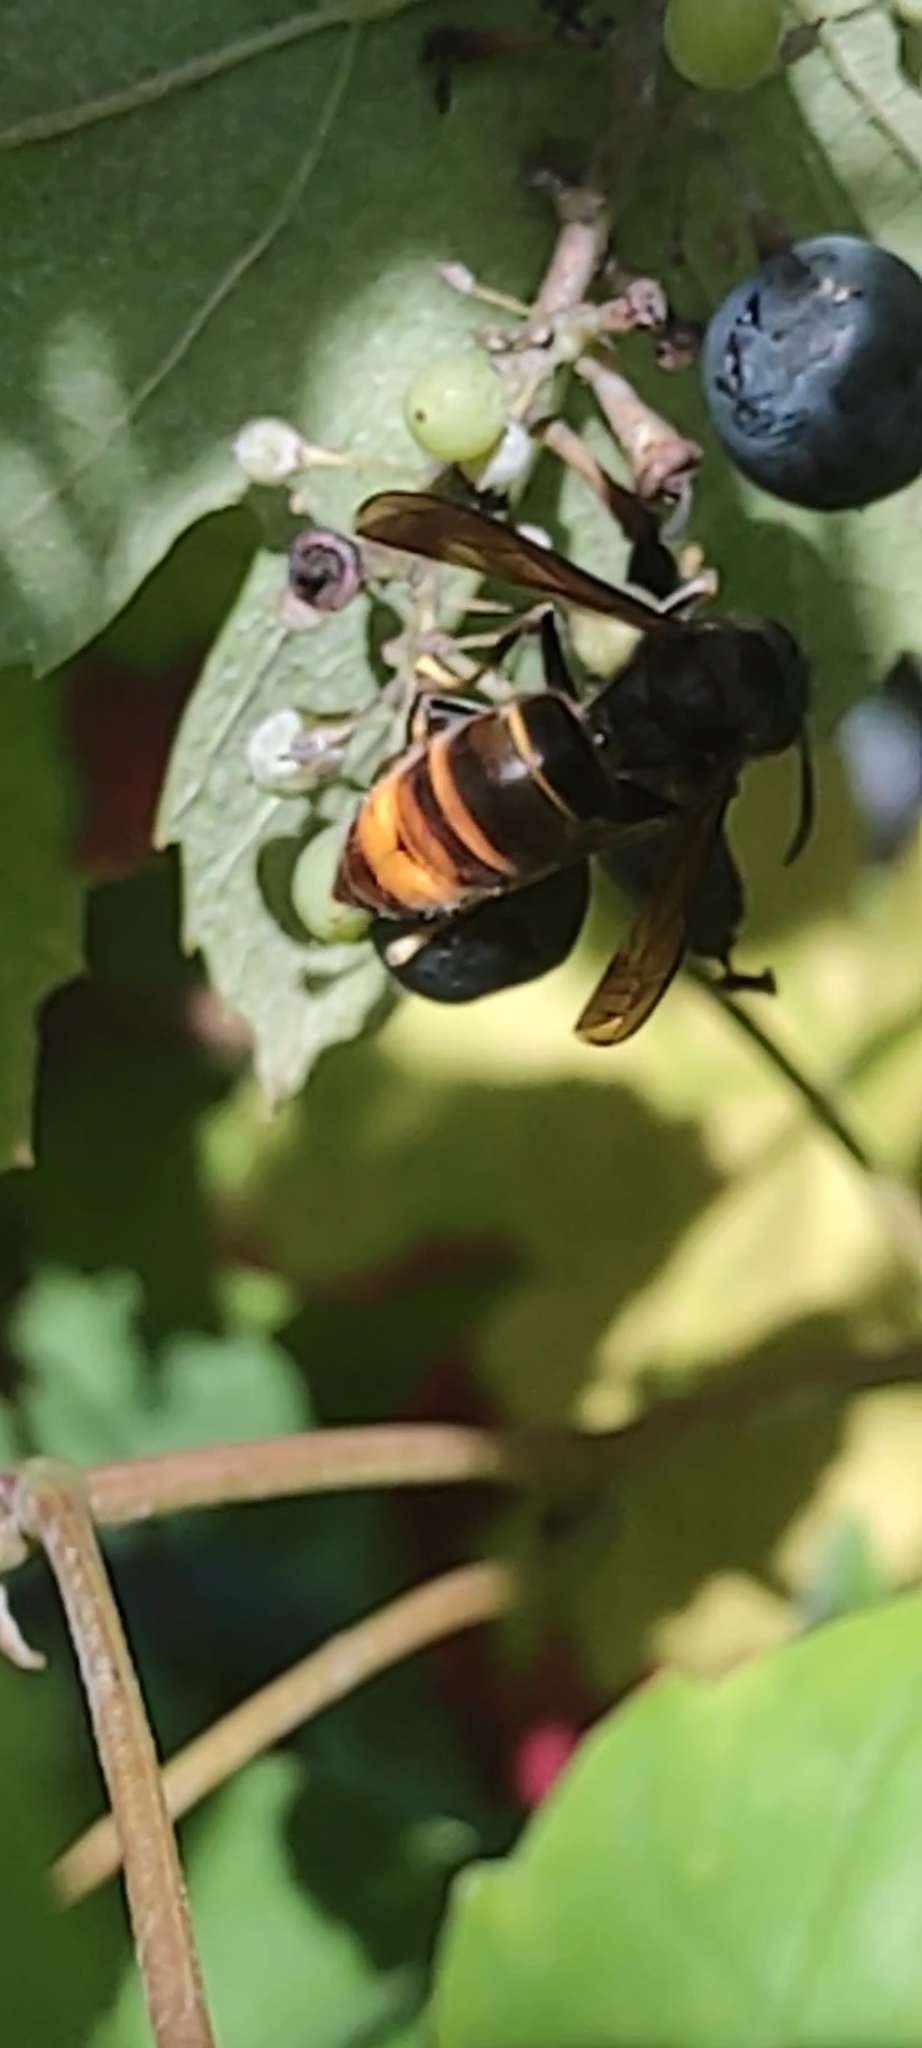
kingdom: Animalia
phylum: Arthropoda
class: Insecta
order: Hymenoptera
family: Vespidae
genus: Vespa
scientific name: Vespa velutina
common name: Asian hornet
